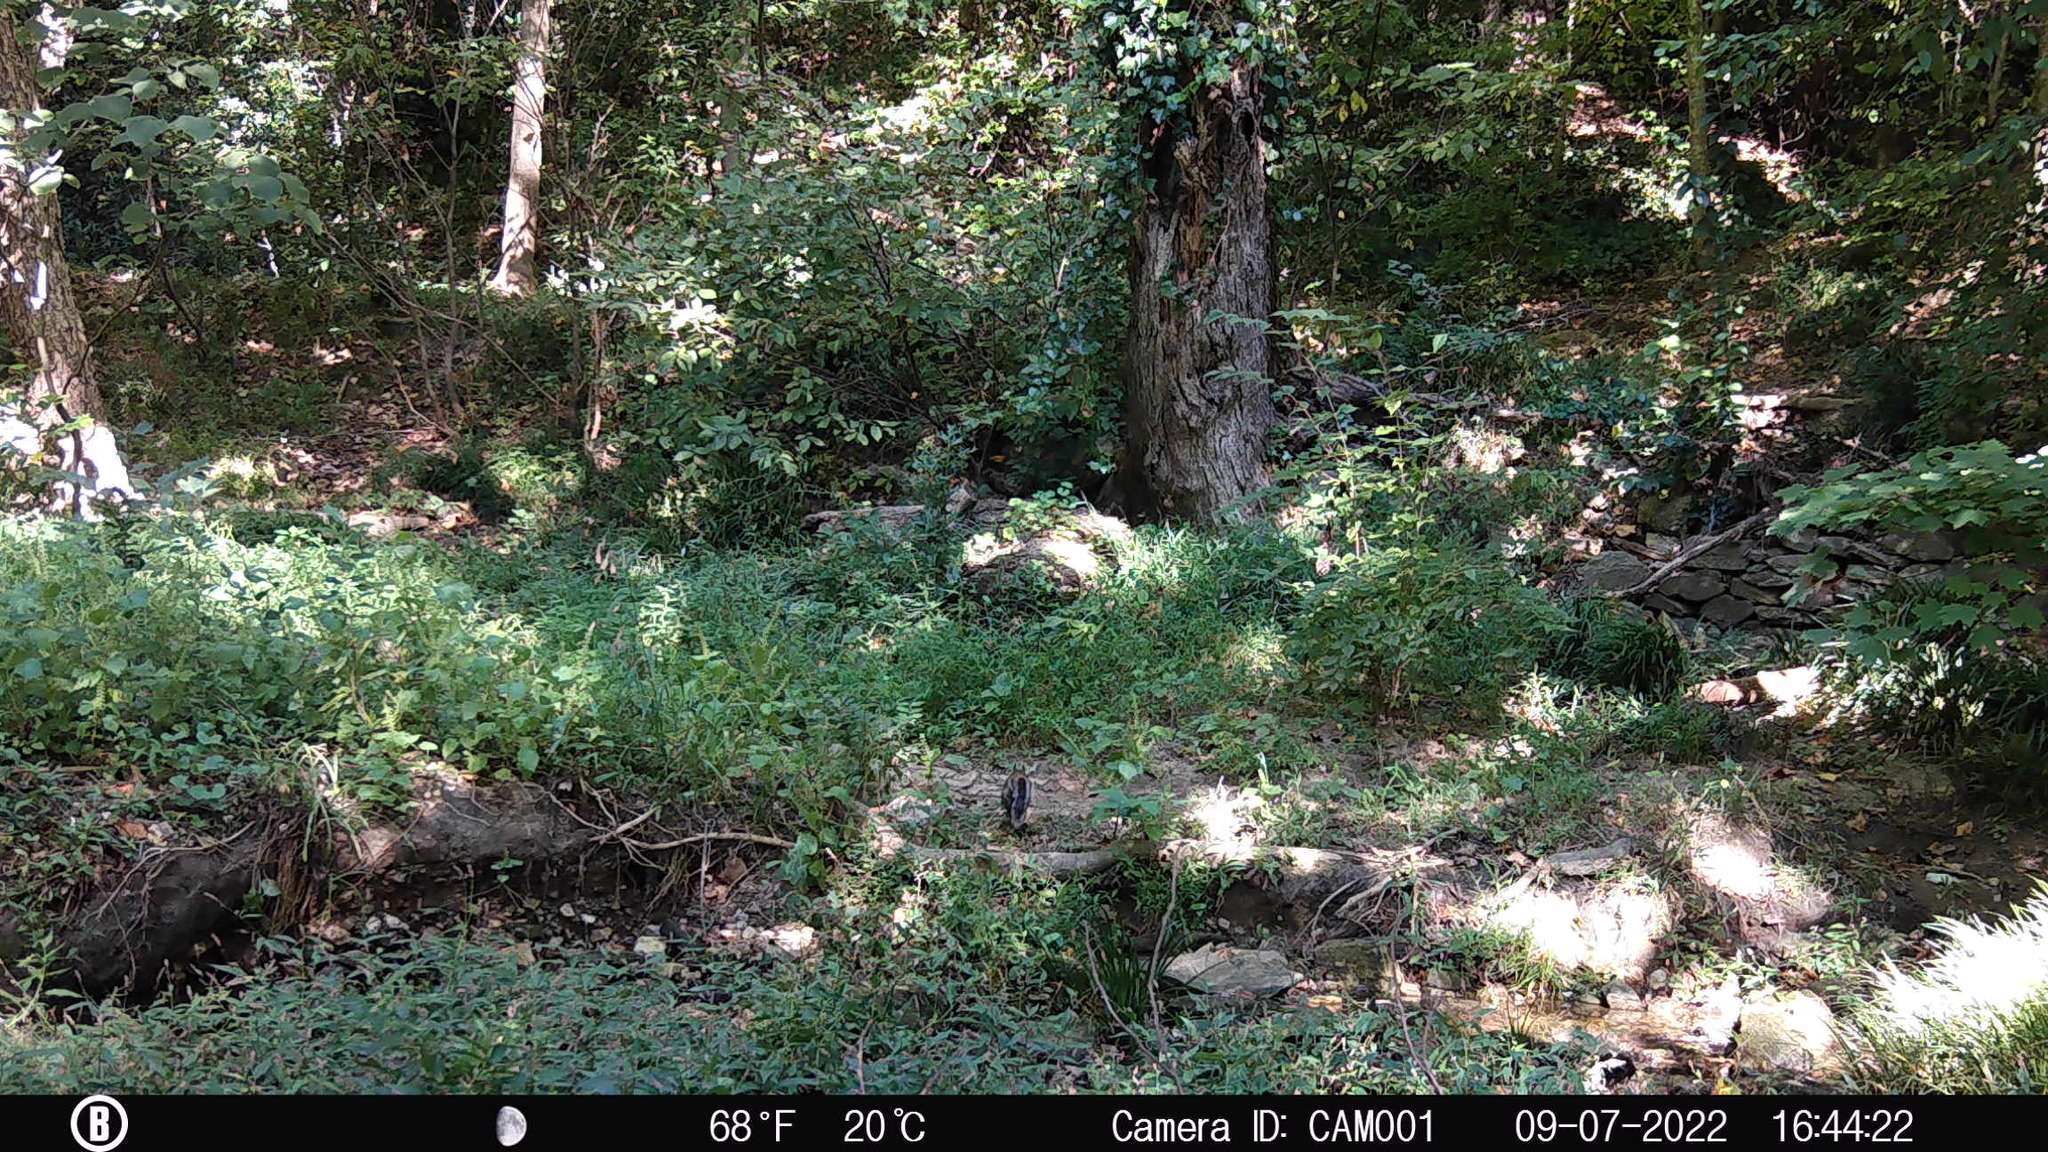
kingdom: Animalia
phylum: Chordata
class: Mammalia
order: Rodentia
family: Sciuridae
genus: Sciurus
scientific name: Sciurus carolinensis
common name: Eastern gray squirrel
